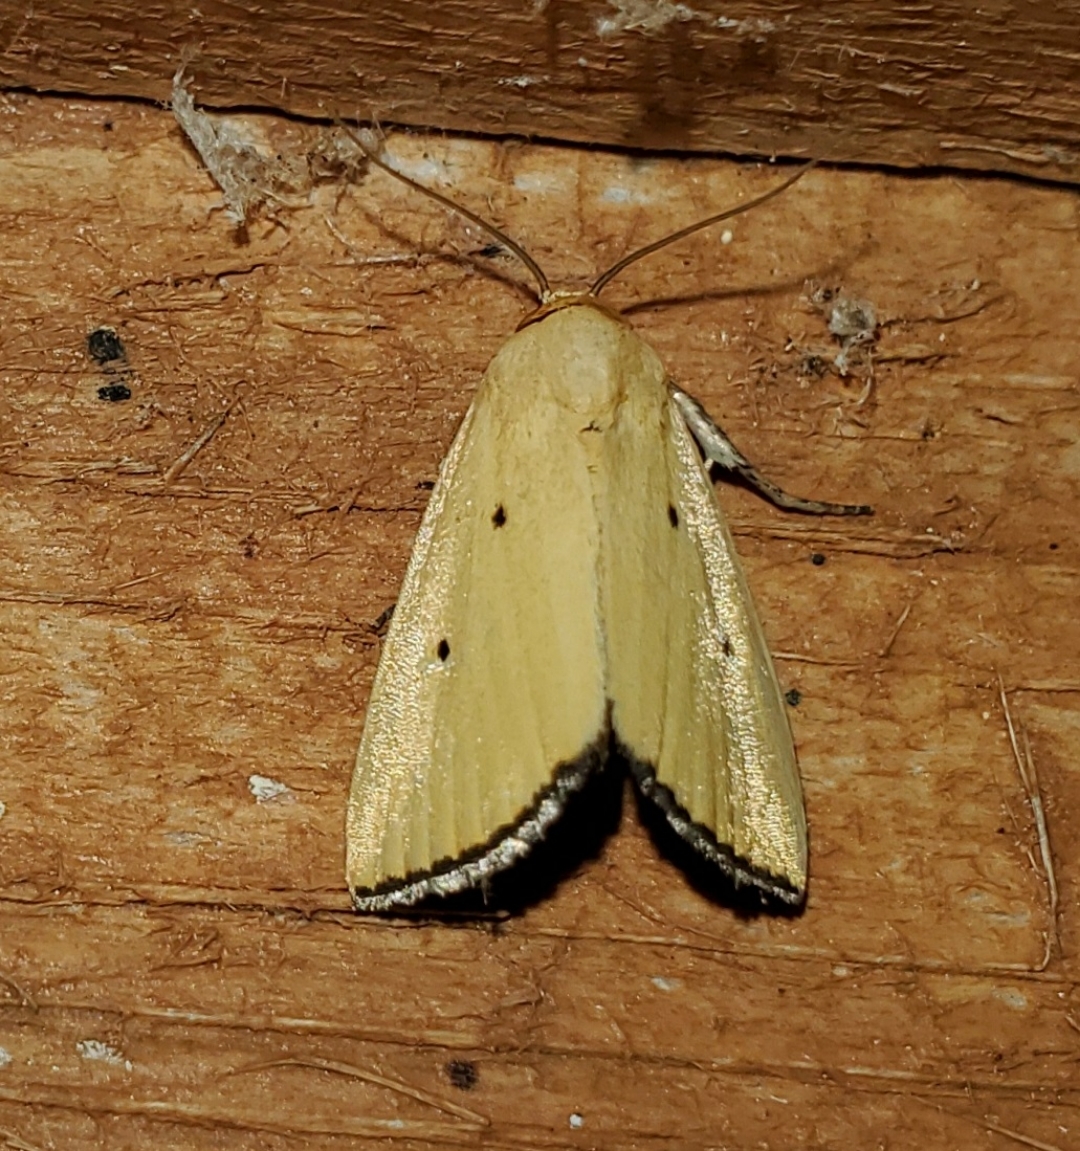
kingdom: Animalia
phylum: Arthropoda
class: Insecta
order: Lepidoptera
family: Noctuidae
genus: Marimatha
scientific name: Marimatha nigrofimbria
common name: Black-bordered lemon moth
